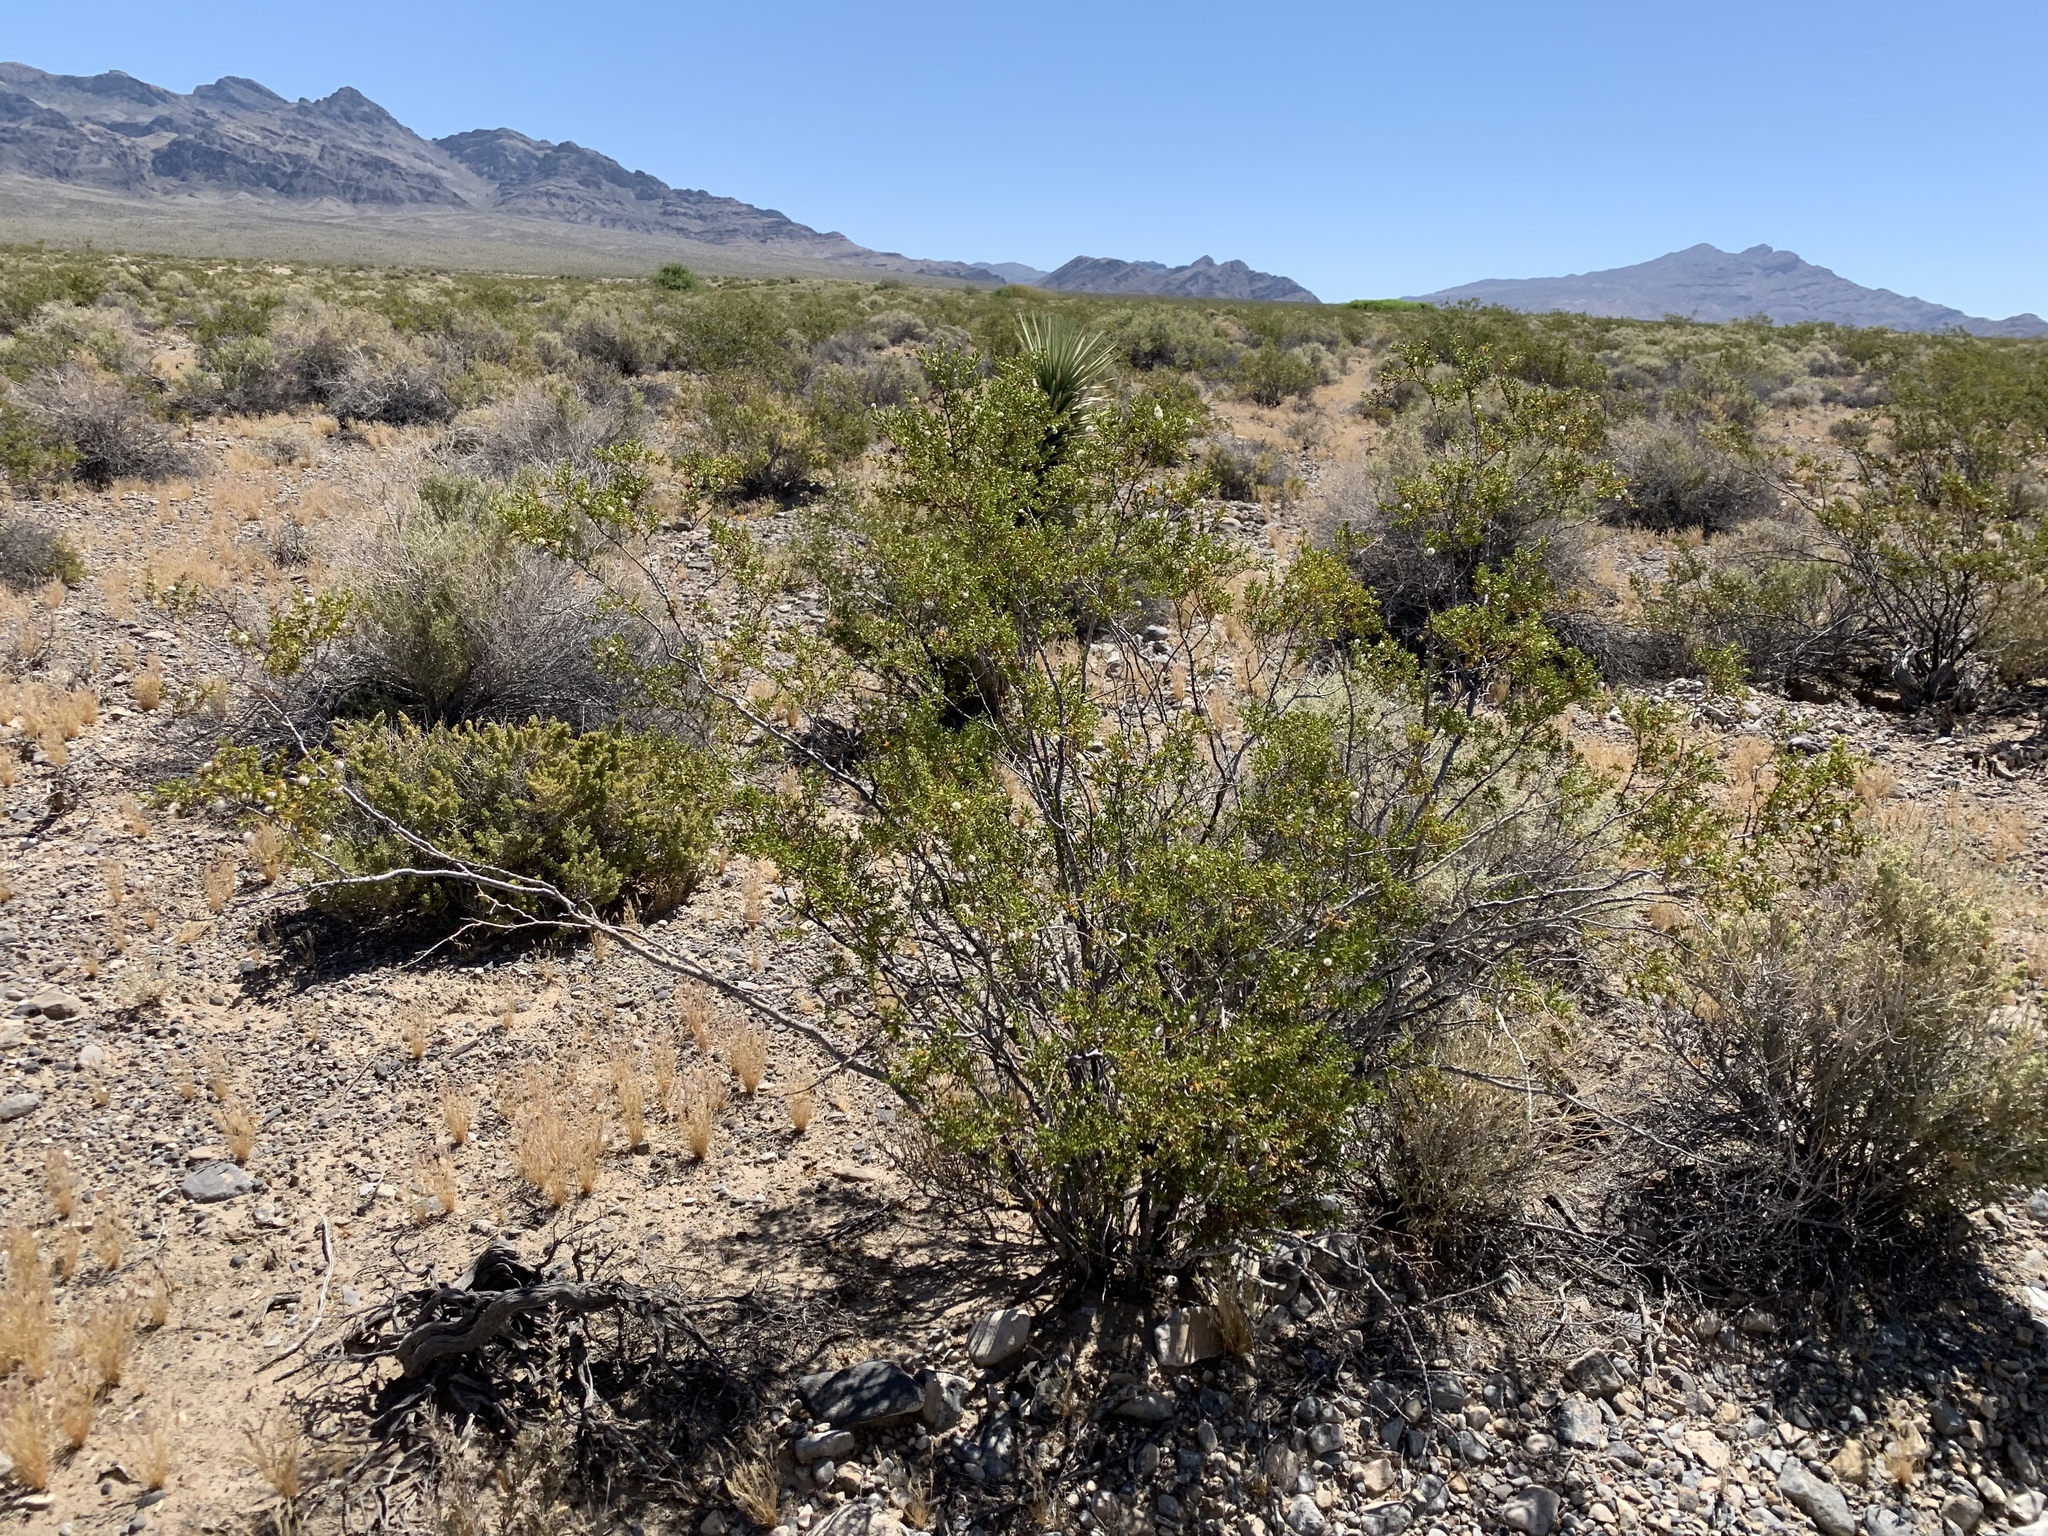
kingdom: Plantae
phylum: Tracheophyta
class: Magnoliopsida
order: Zygophyllales
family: Zygophyllaceae
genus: Larrea
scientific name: Larrea tridentata
